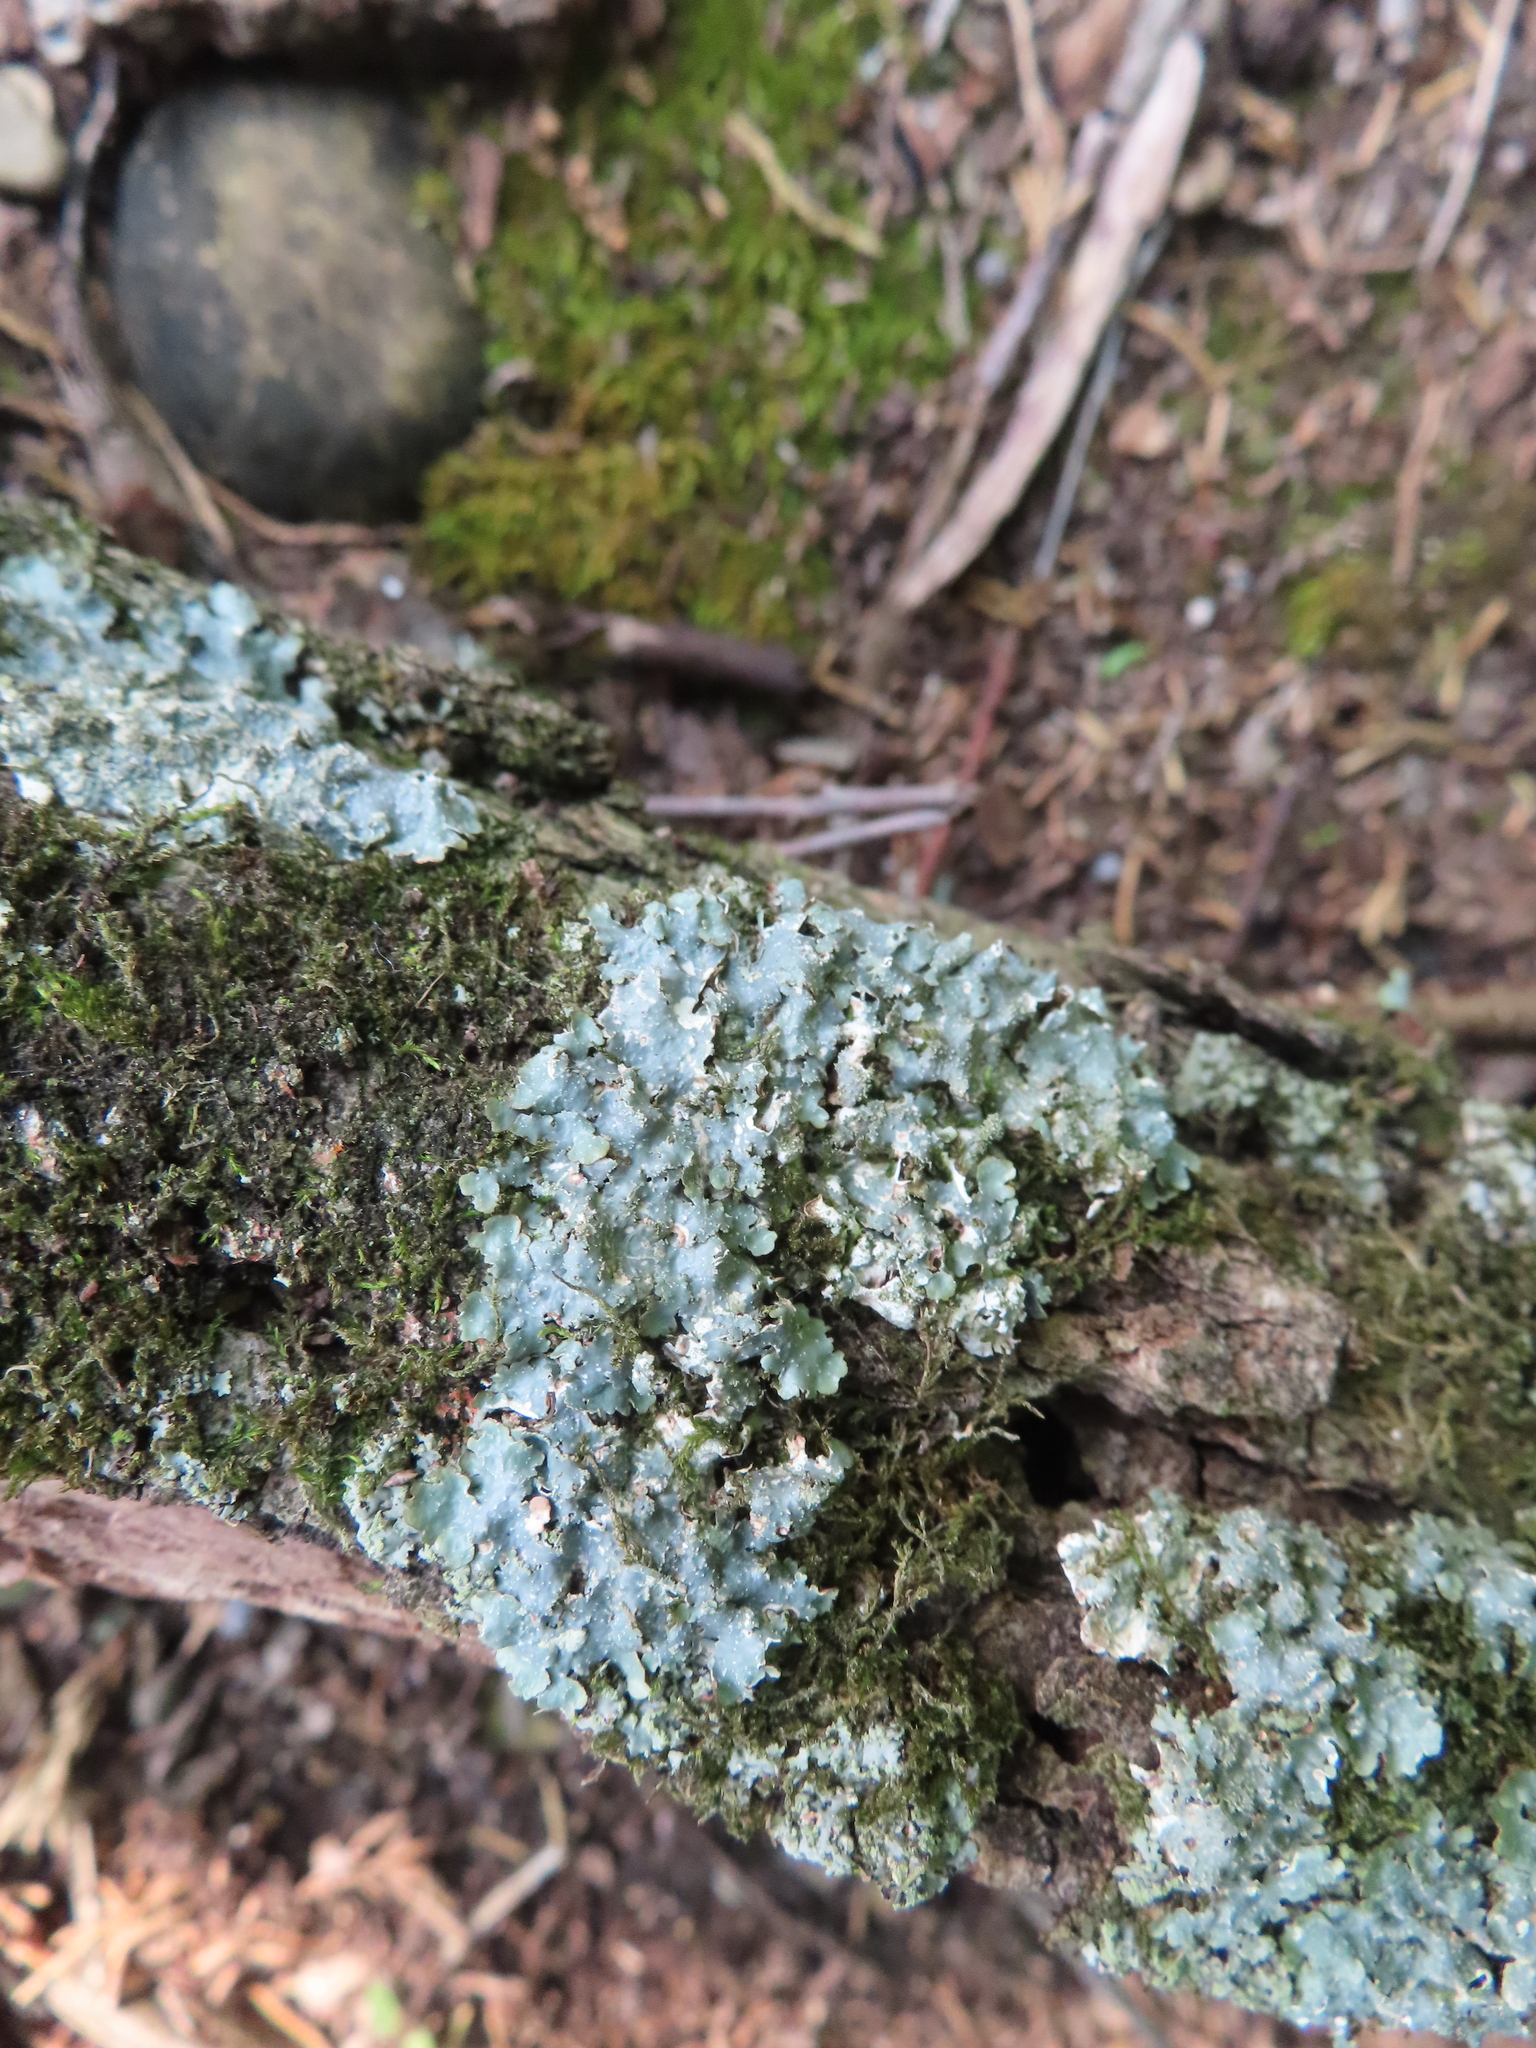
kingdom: Fungi
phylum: Ascomycota
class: Lecanoromycetes
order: Lecanorales
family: Parmeliaceae
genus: Punctelia
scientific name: Punctelia rudecta
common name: Rough speckled shield lichen
